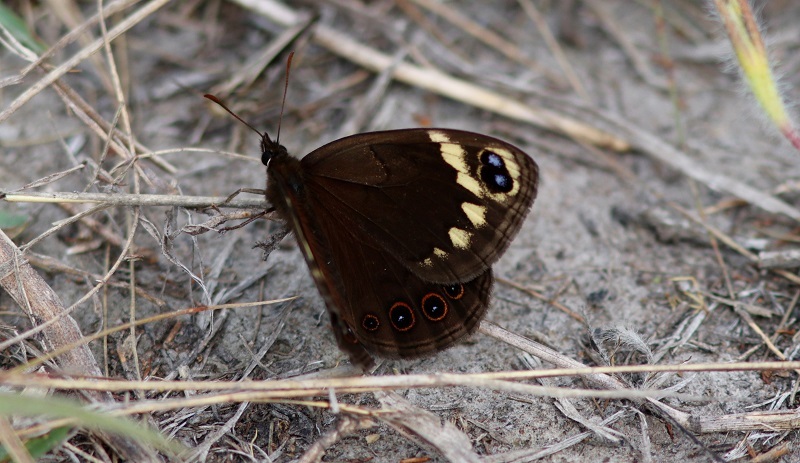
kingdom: Animalia
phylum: Arthropoda
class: Insecta
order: Lepidoptera
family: Nymphalidae
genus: Dira
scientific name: Dira clytus
